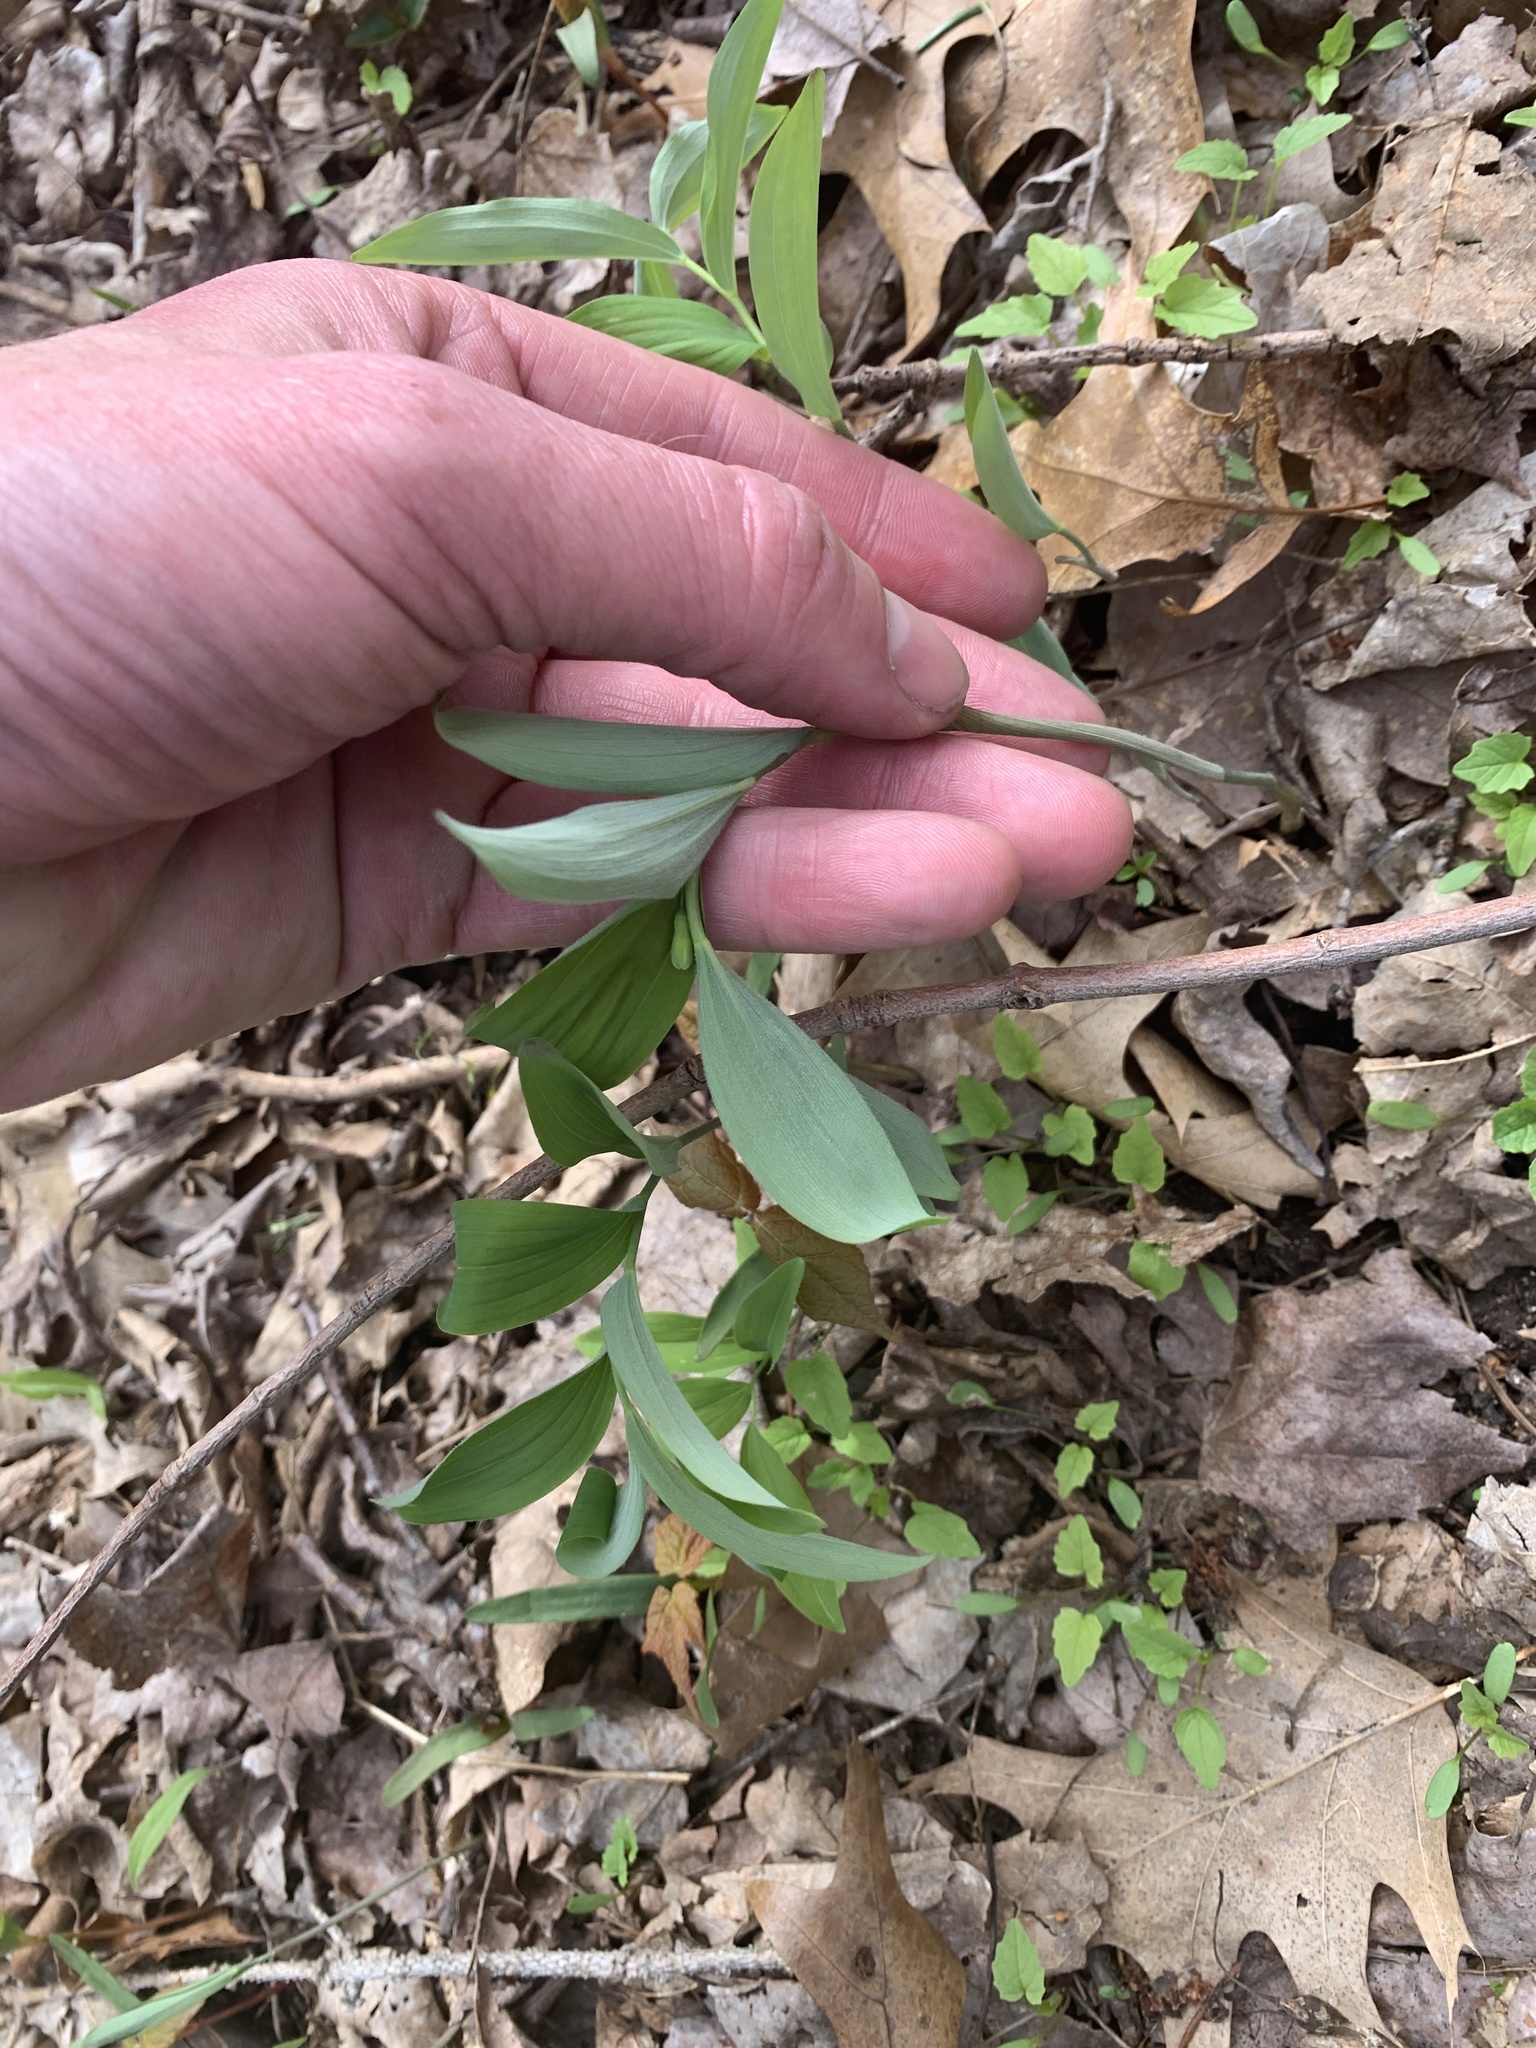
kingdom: Plantae
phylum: Tracheophyta
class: Liliopsida
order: Asparagales
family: Asparagaceae
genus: Polygonatum
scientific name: Polygonatum pubescens
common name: Downy solomon's seal
